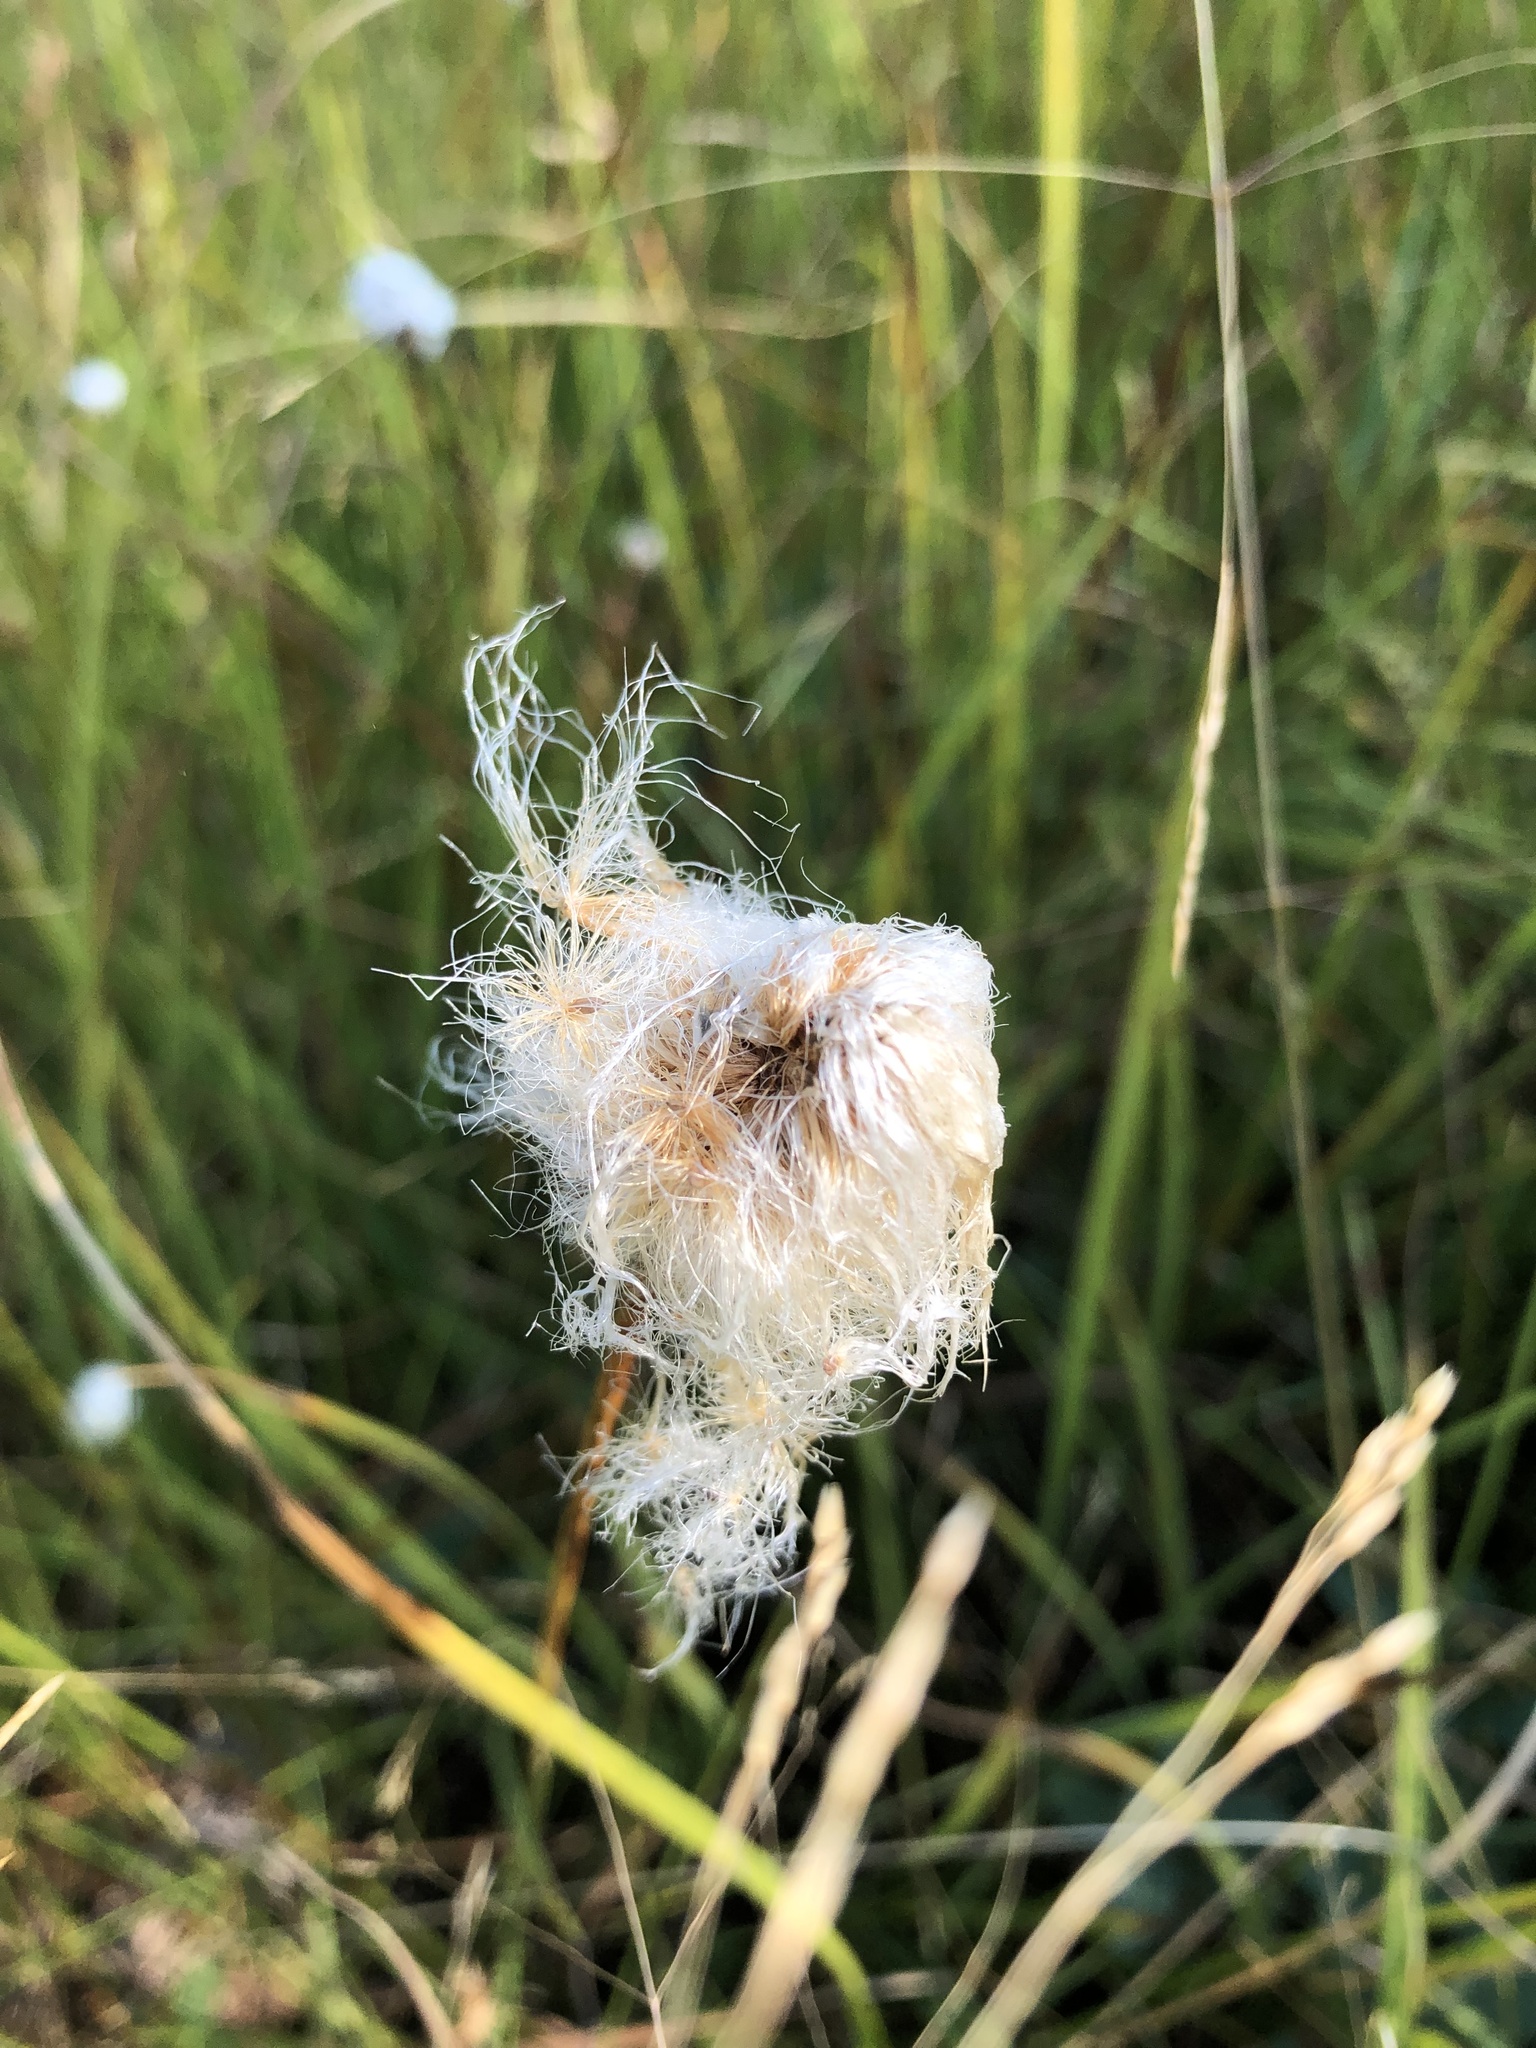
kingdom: Plantae
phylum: Tracheophyta
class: Liliopsida
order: Poales
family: Cyperaceae
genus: Eriophorum
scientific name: Eriophorum chamissonis
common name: Chamisso's cottongrass
